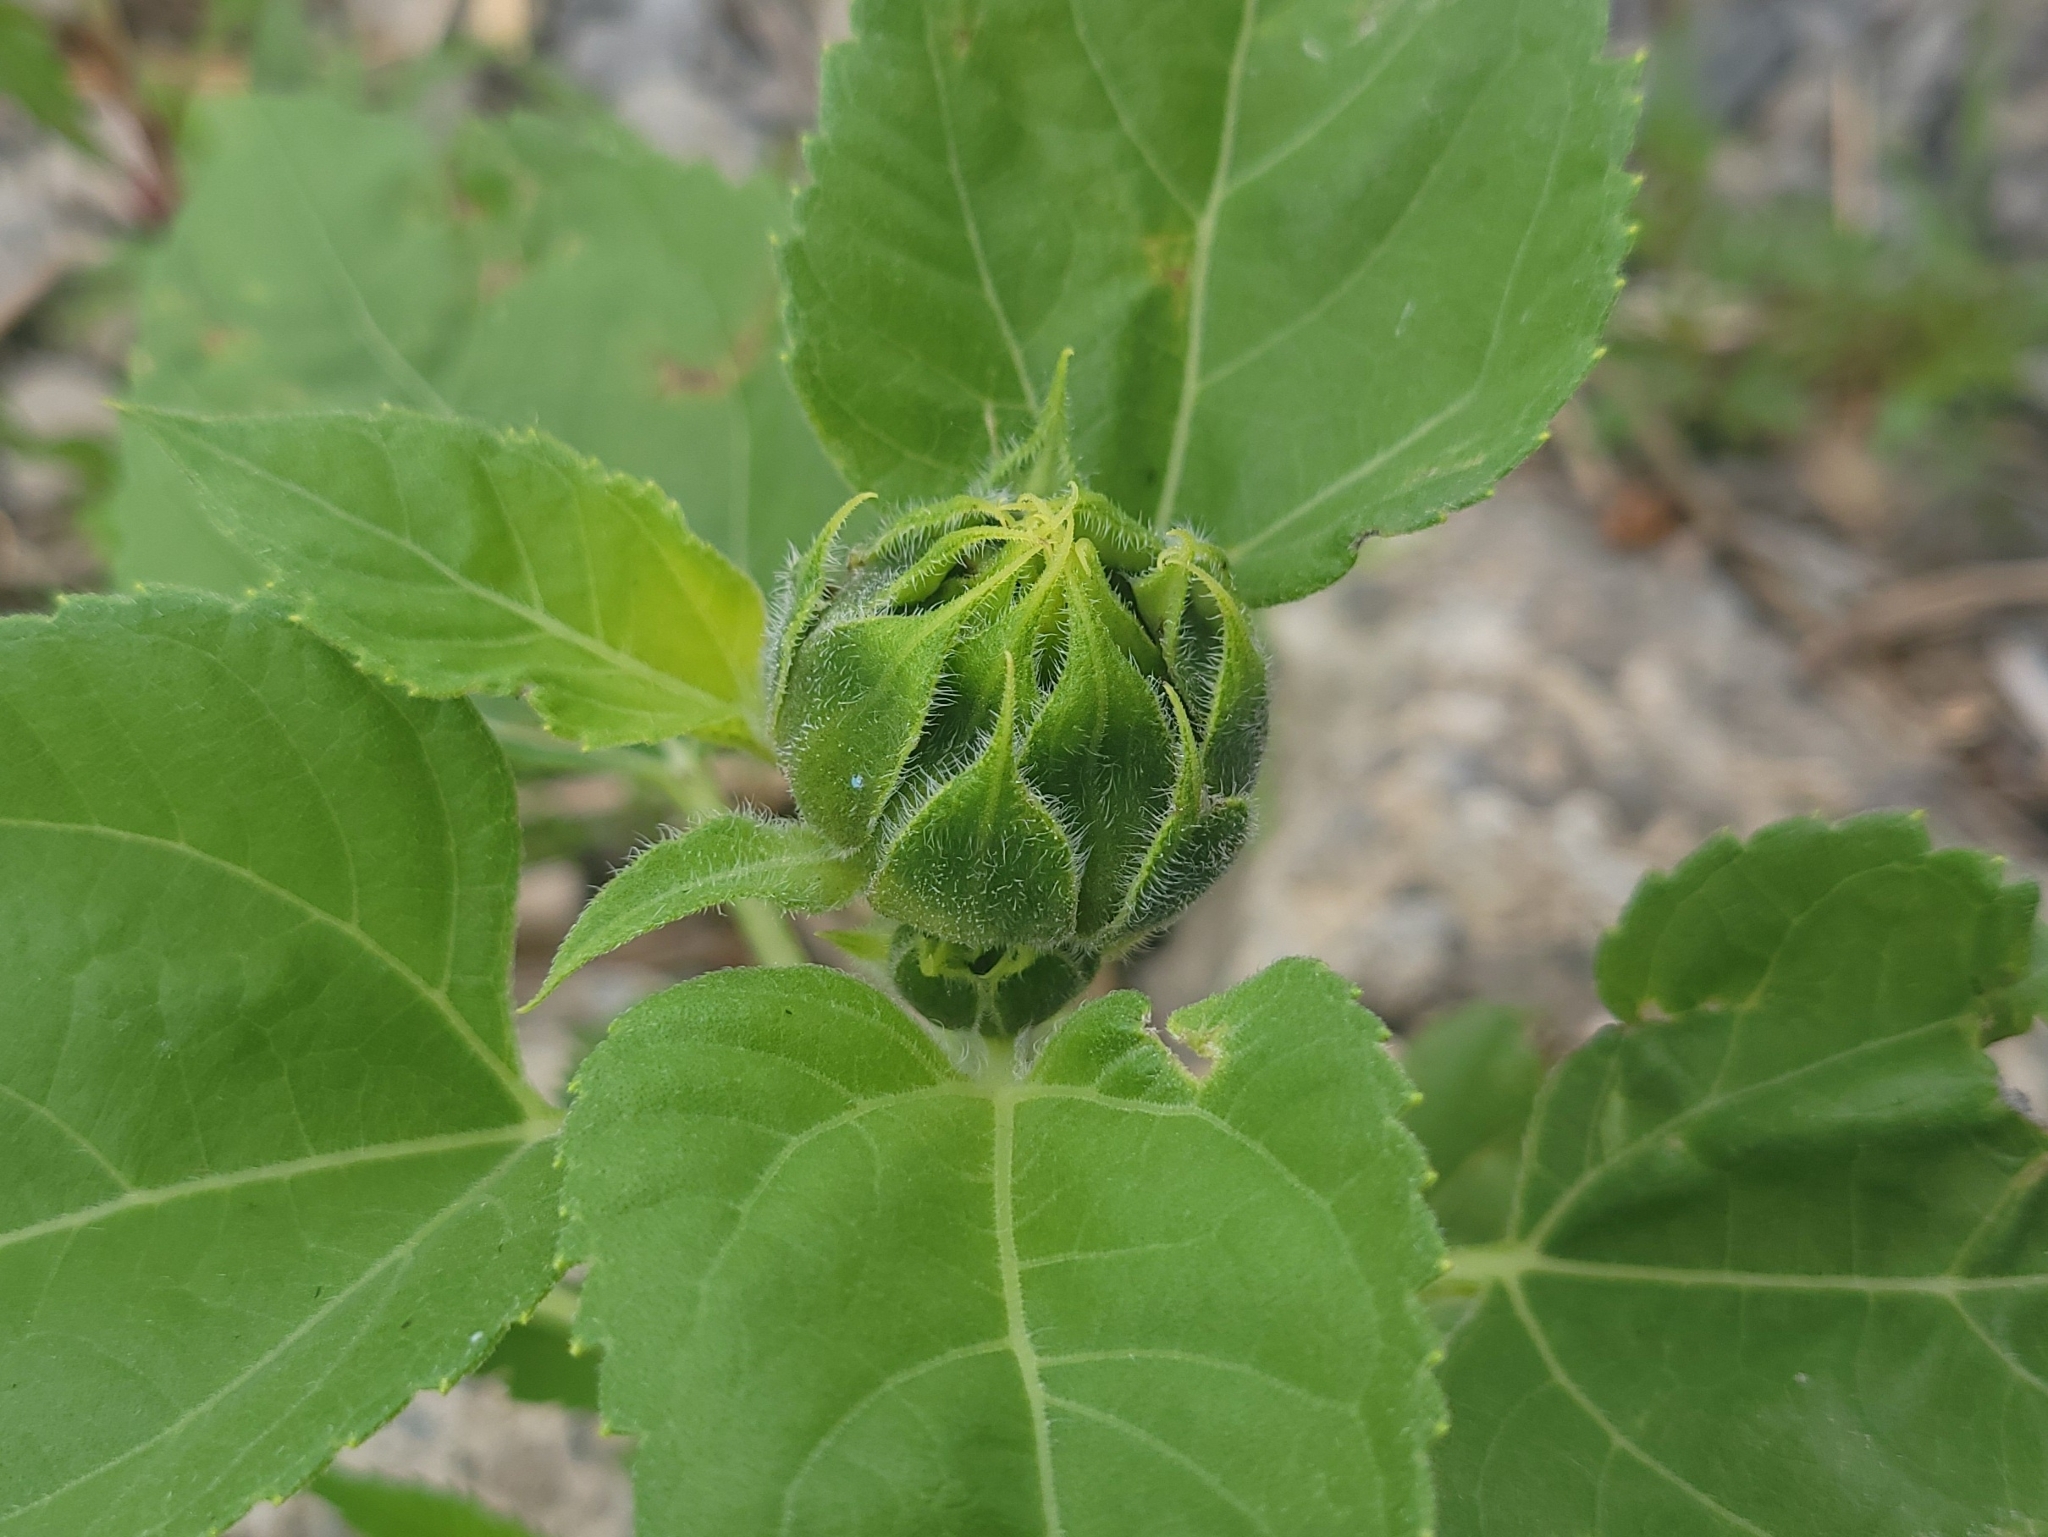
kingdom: Plantae
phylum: Tracheophyta
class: Magnoliopsida
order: Asterales
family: Asteraceae
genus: Helianthus
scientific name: Helianthus annuus
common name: Sunflower
